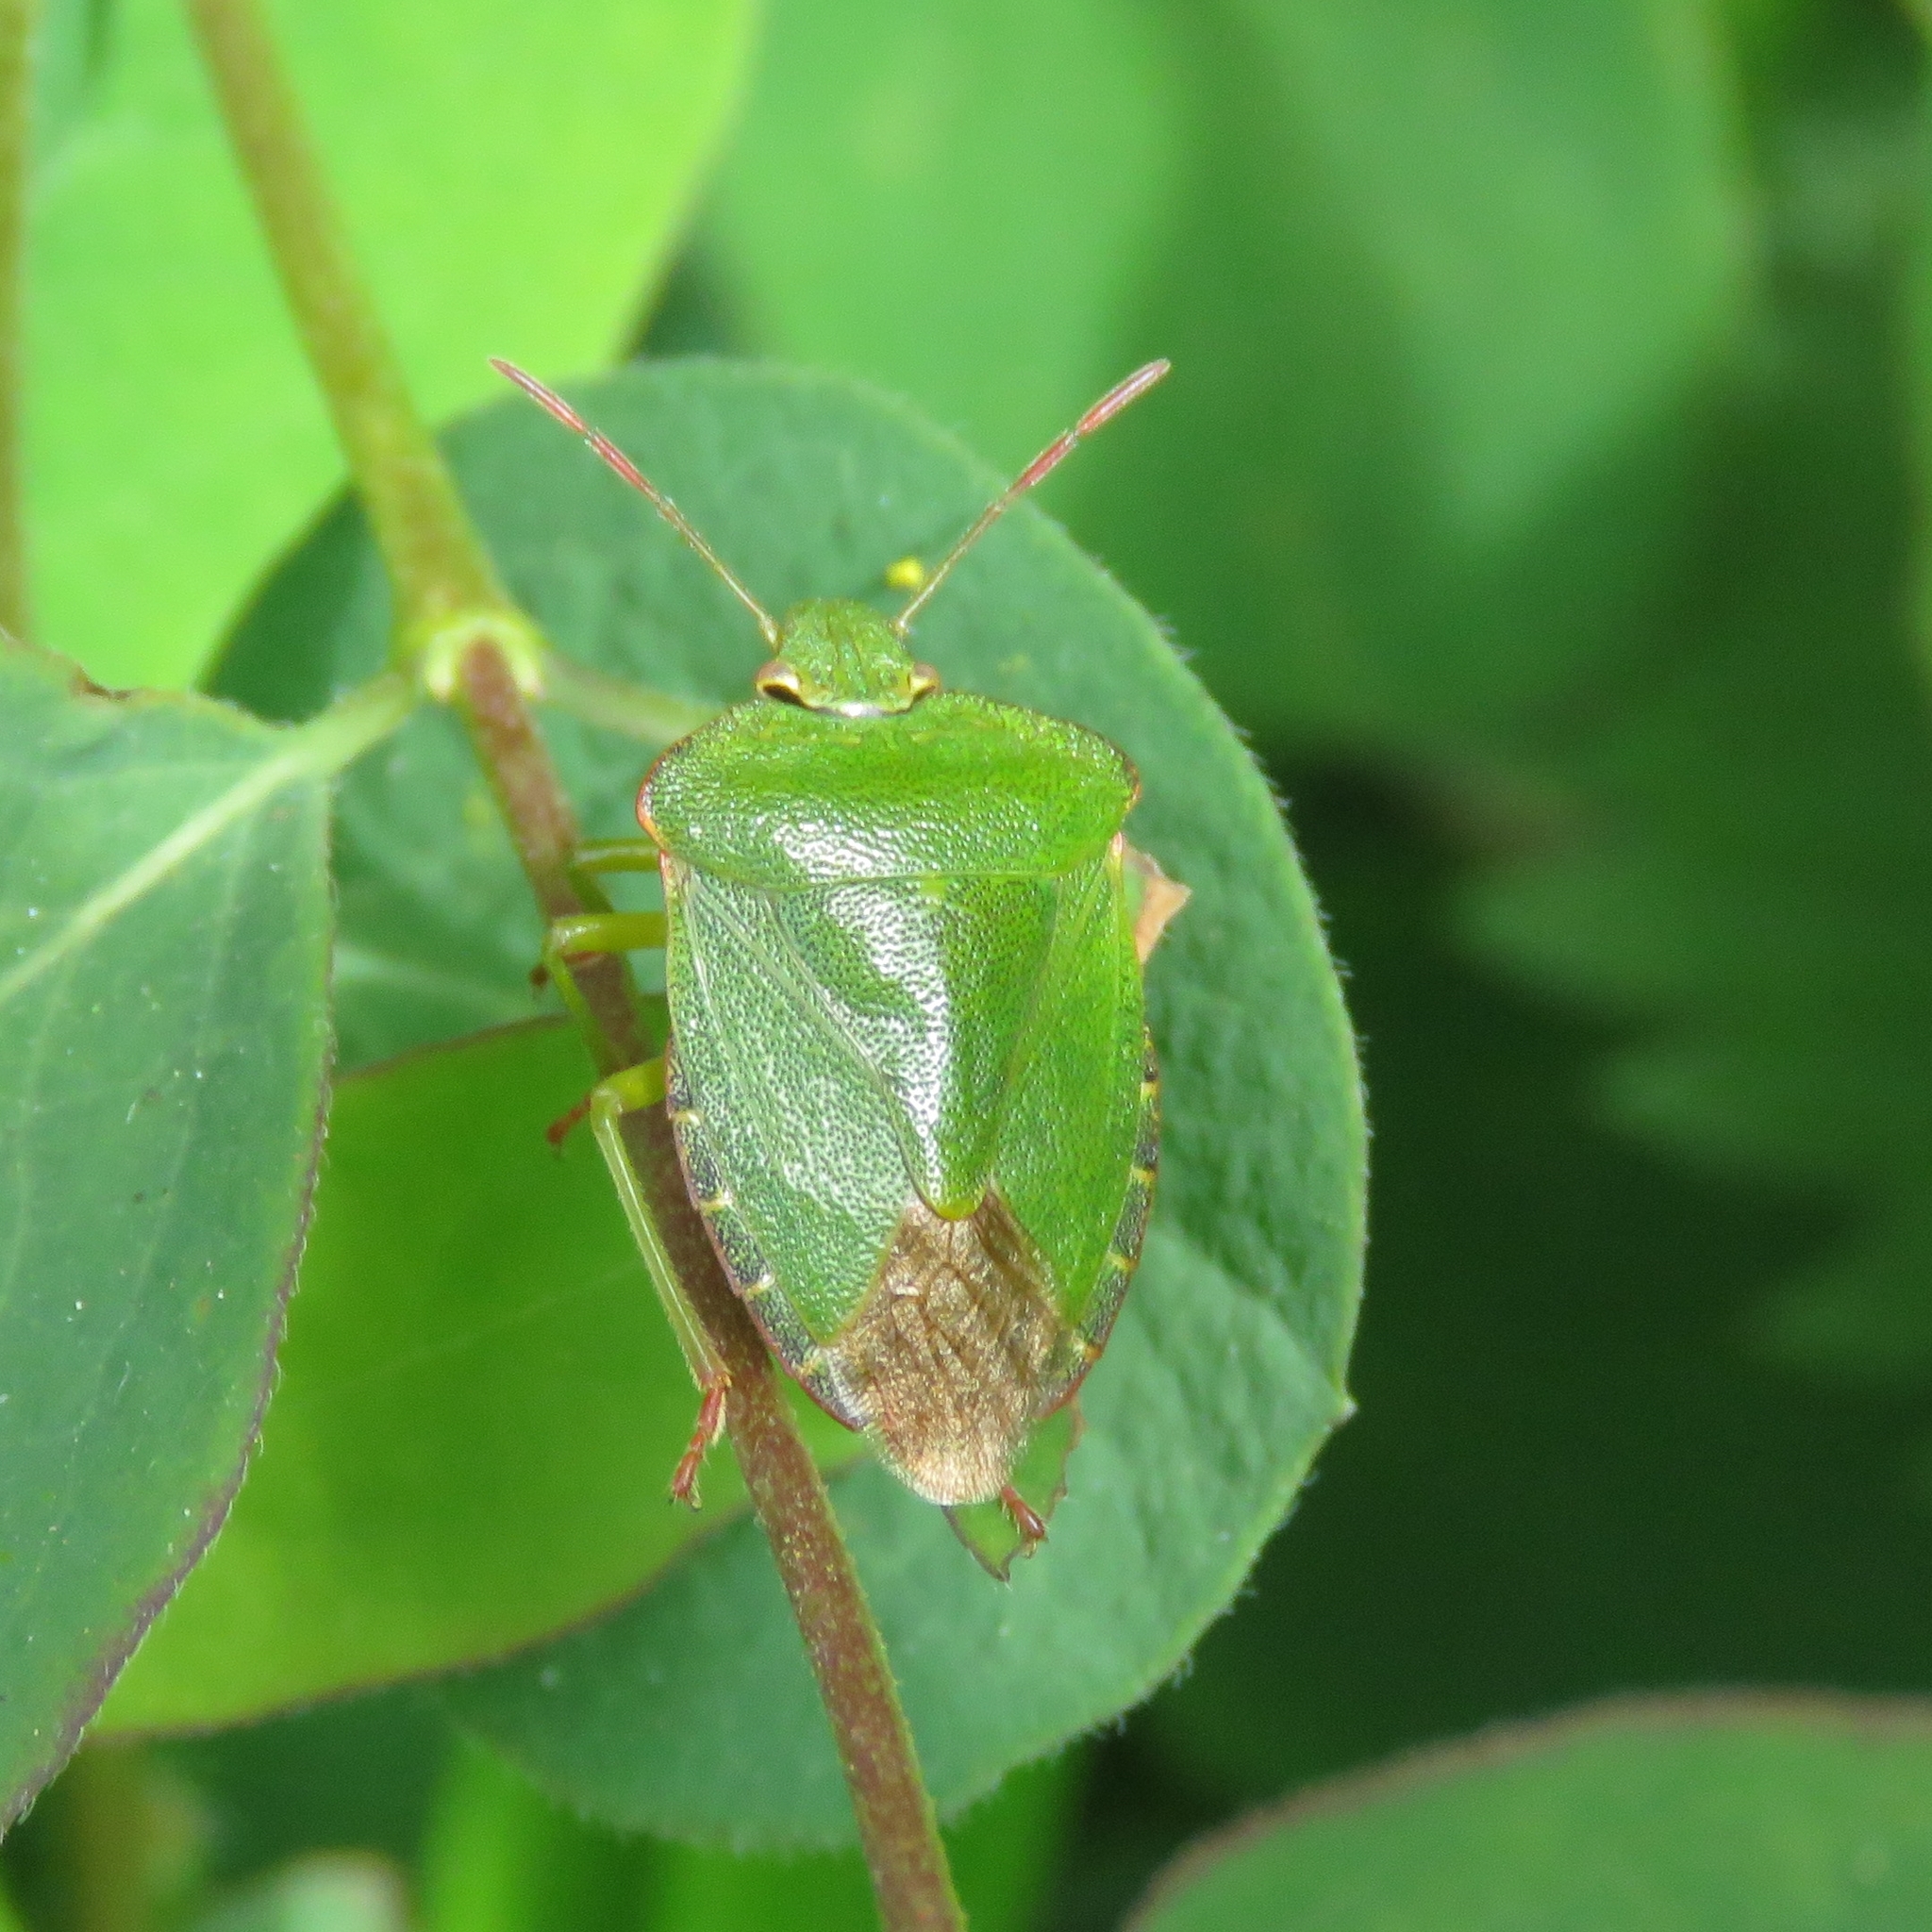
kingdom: Animalia
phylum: Arthropoda
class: Insecta
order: Hemiptera
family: Pentatomidae
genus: Palomena
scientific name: Palomena prasina
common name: Green shieldbug
